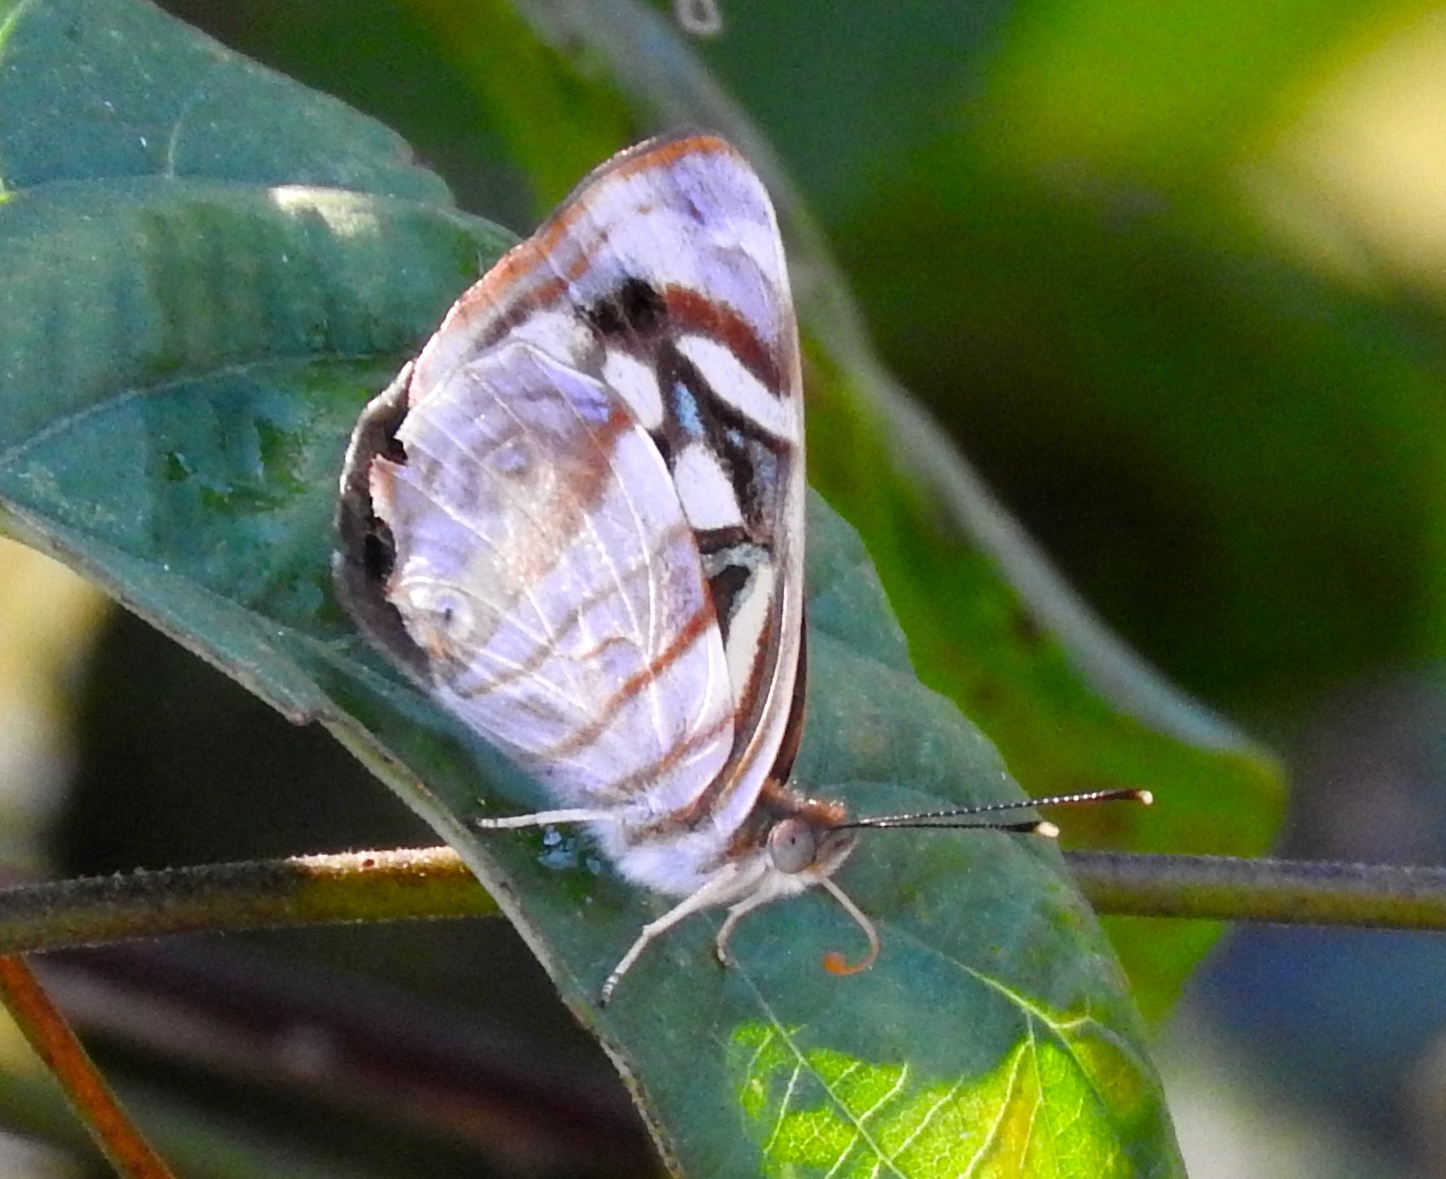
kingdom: Animalia
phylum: Arthropoda
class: Insecta
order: Lepidoptera
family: Nymphalidae
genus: Dynamine
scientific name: Dynamine mylitta
